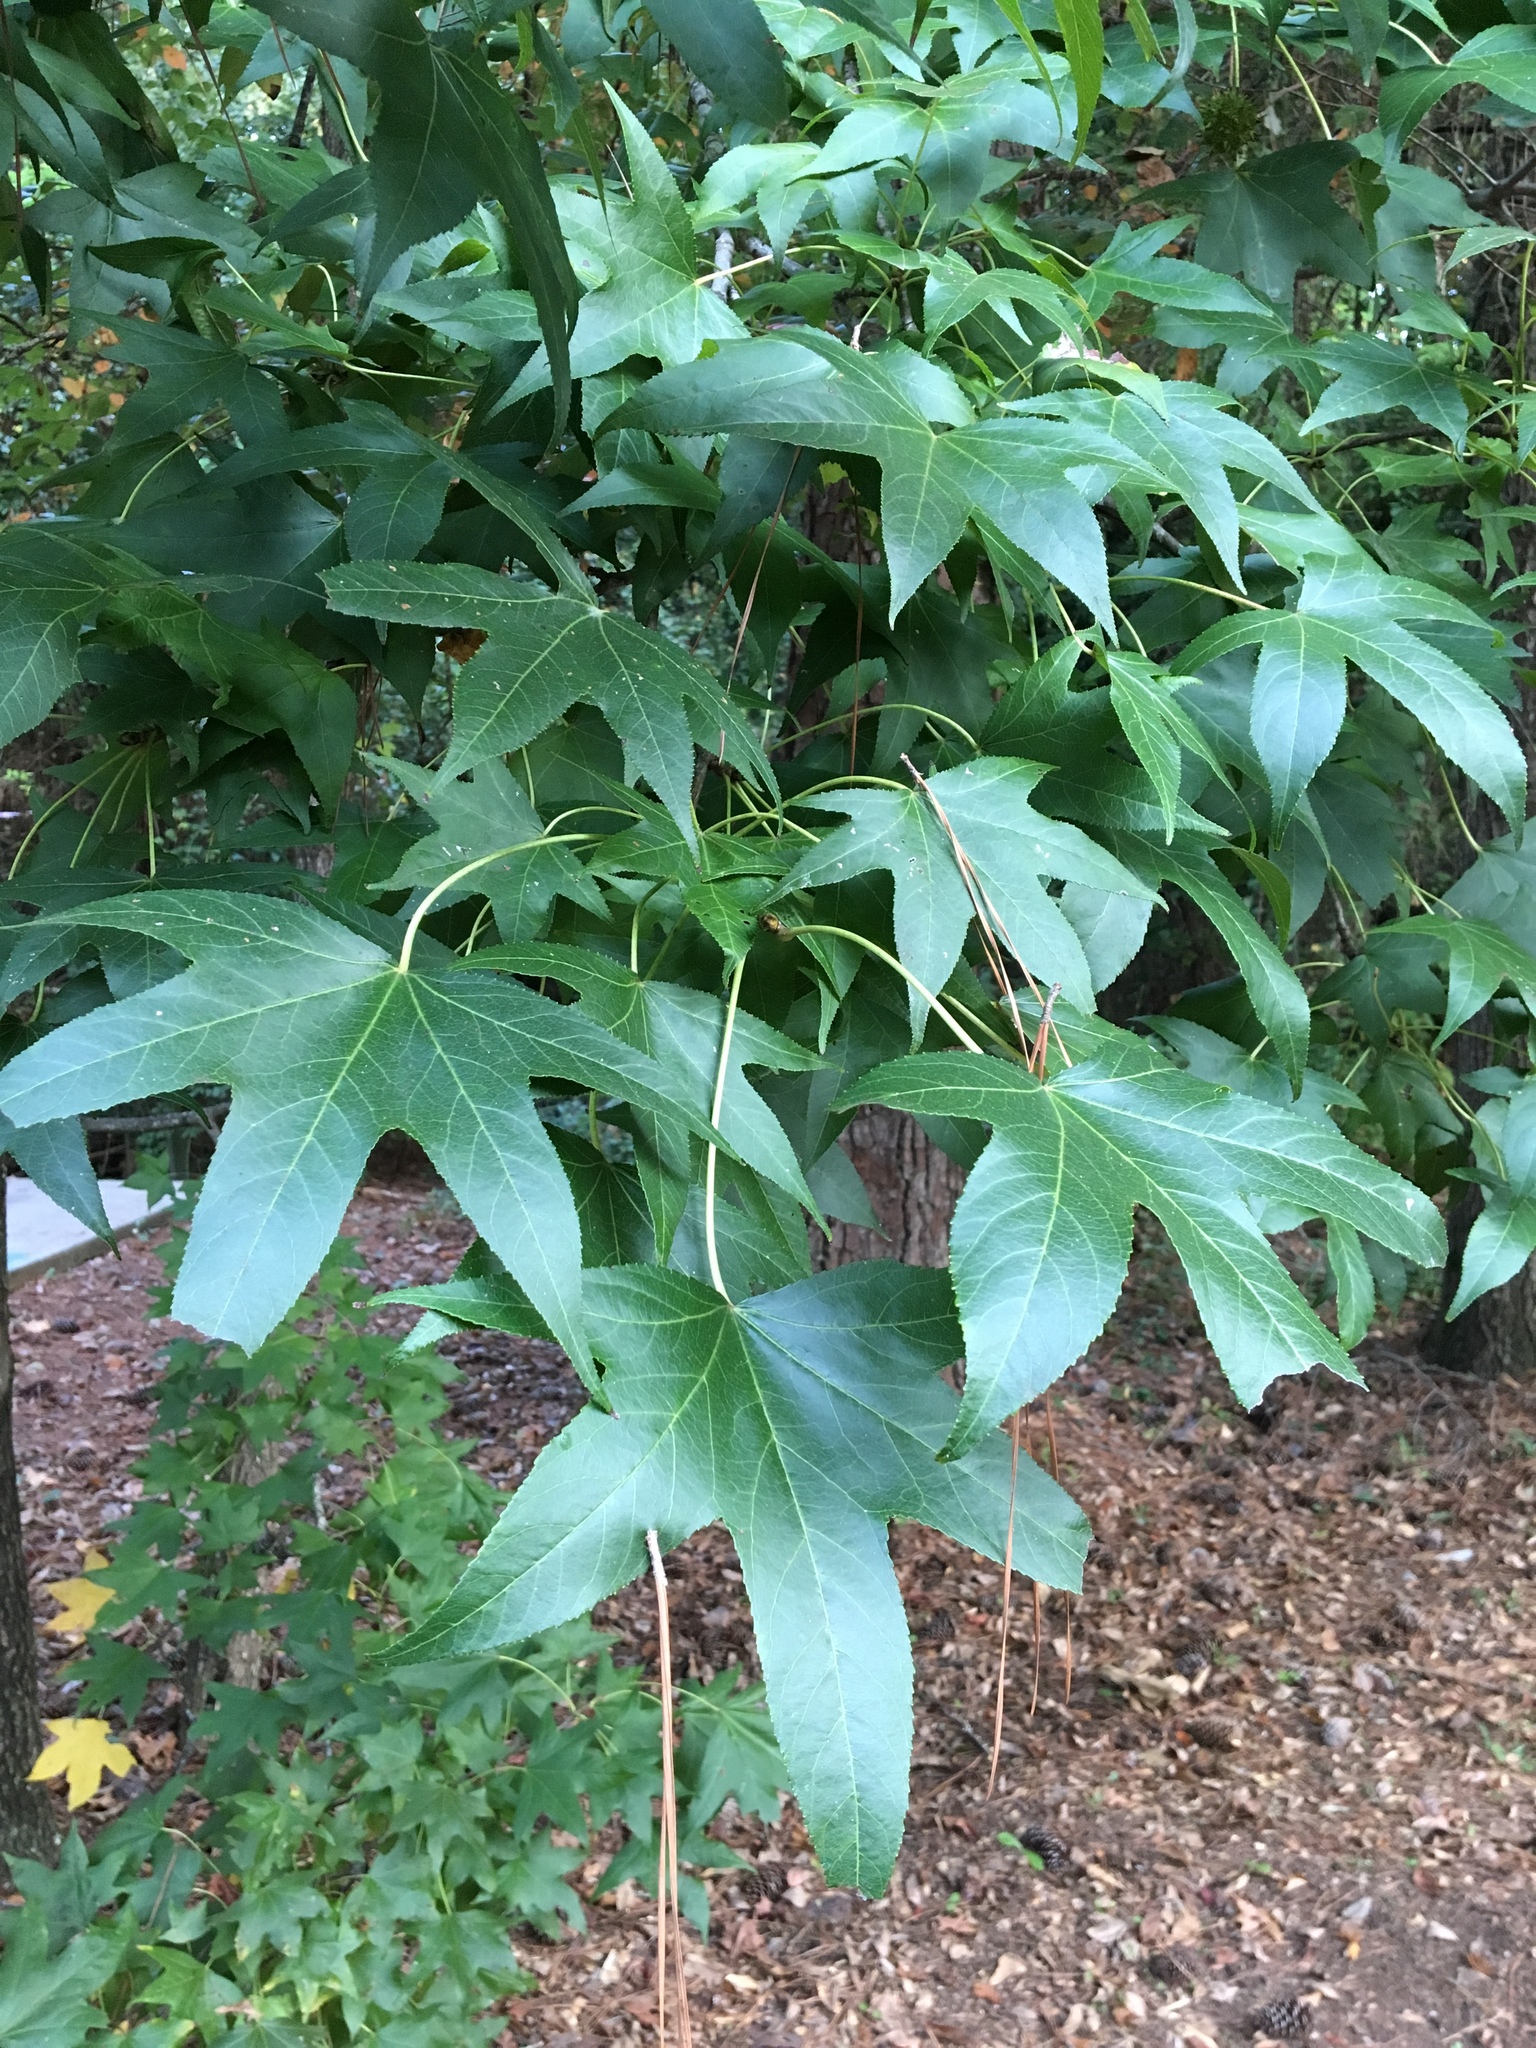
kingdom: Plantae
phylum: Tracheophyta
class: Magnoliopsida
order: Saxifragales
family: Altingiaceae
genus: Liquidambar
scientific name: Liquidambar styraciflua
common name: Sweet gum
